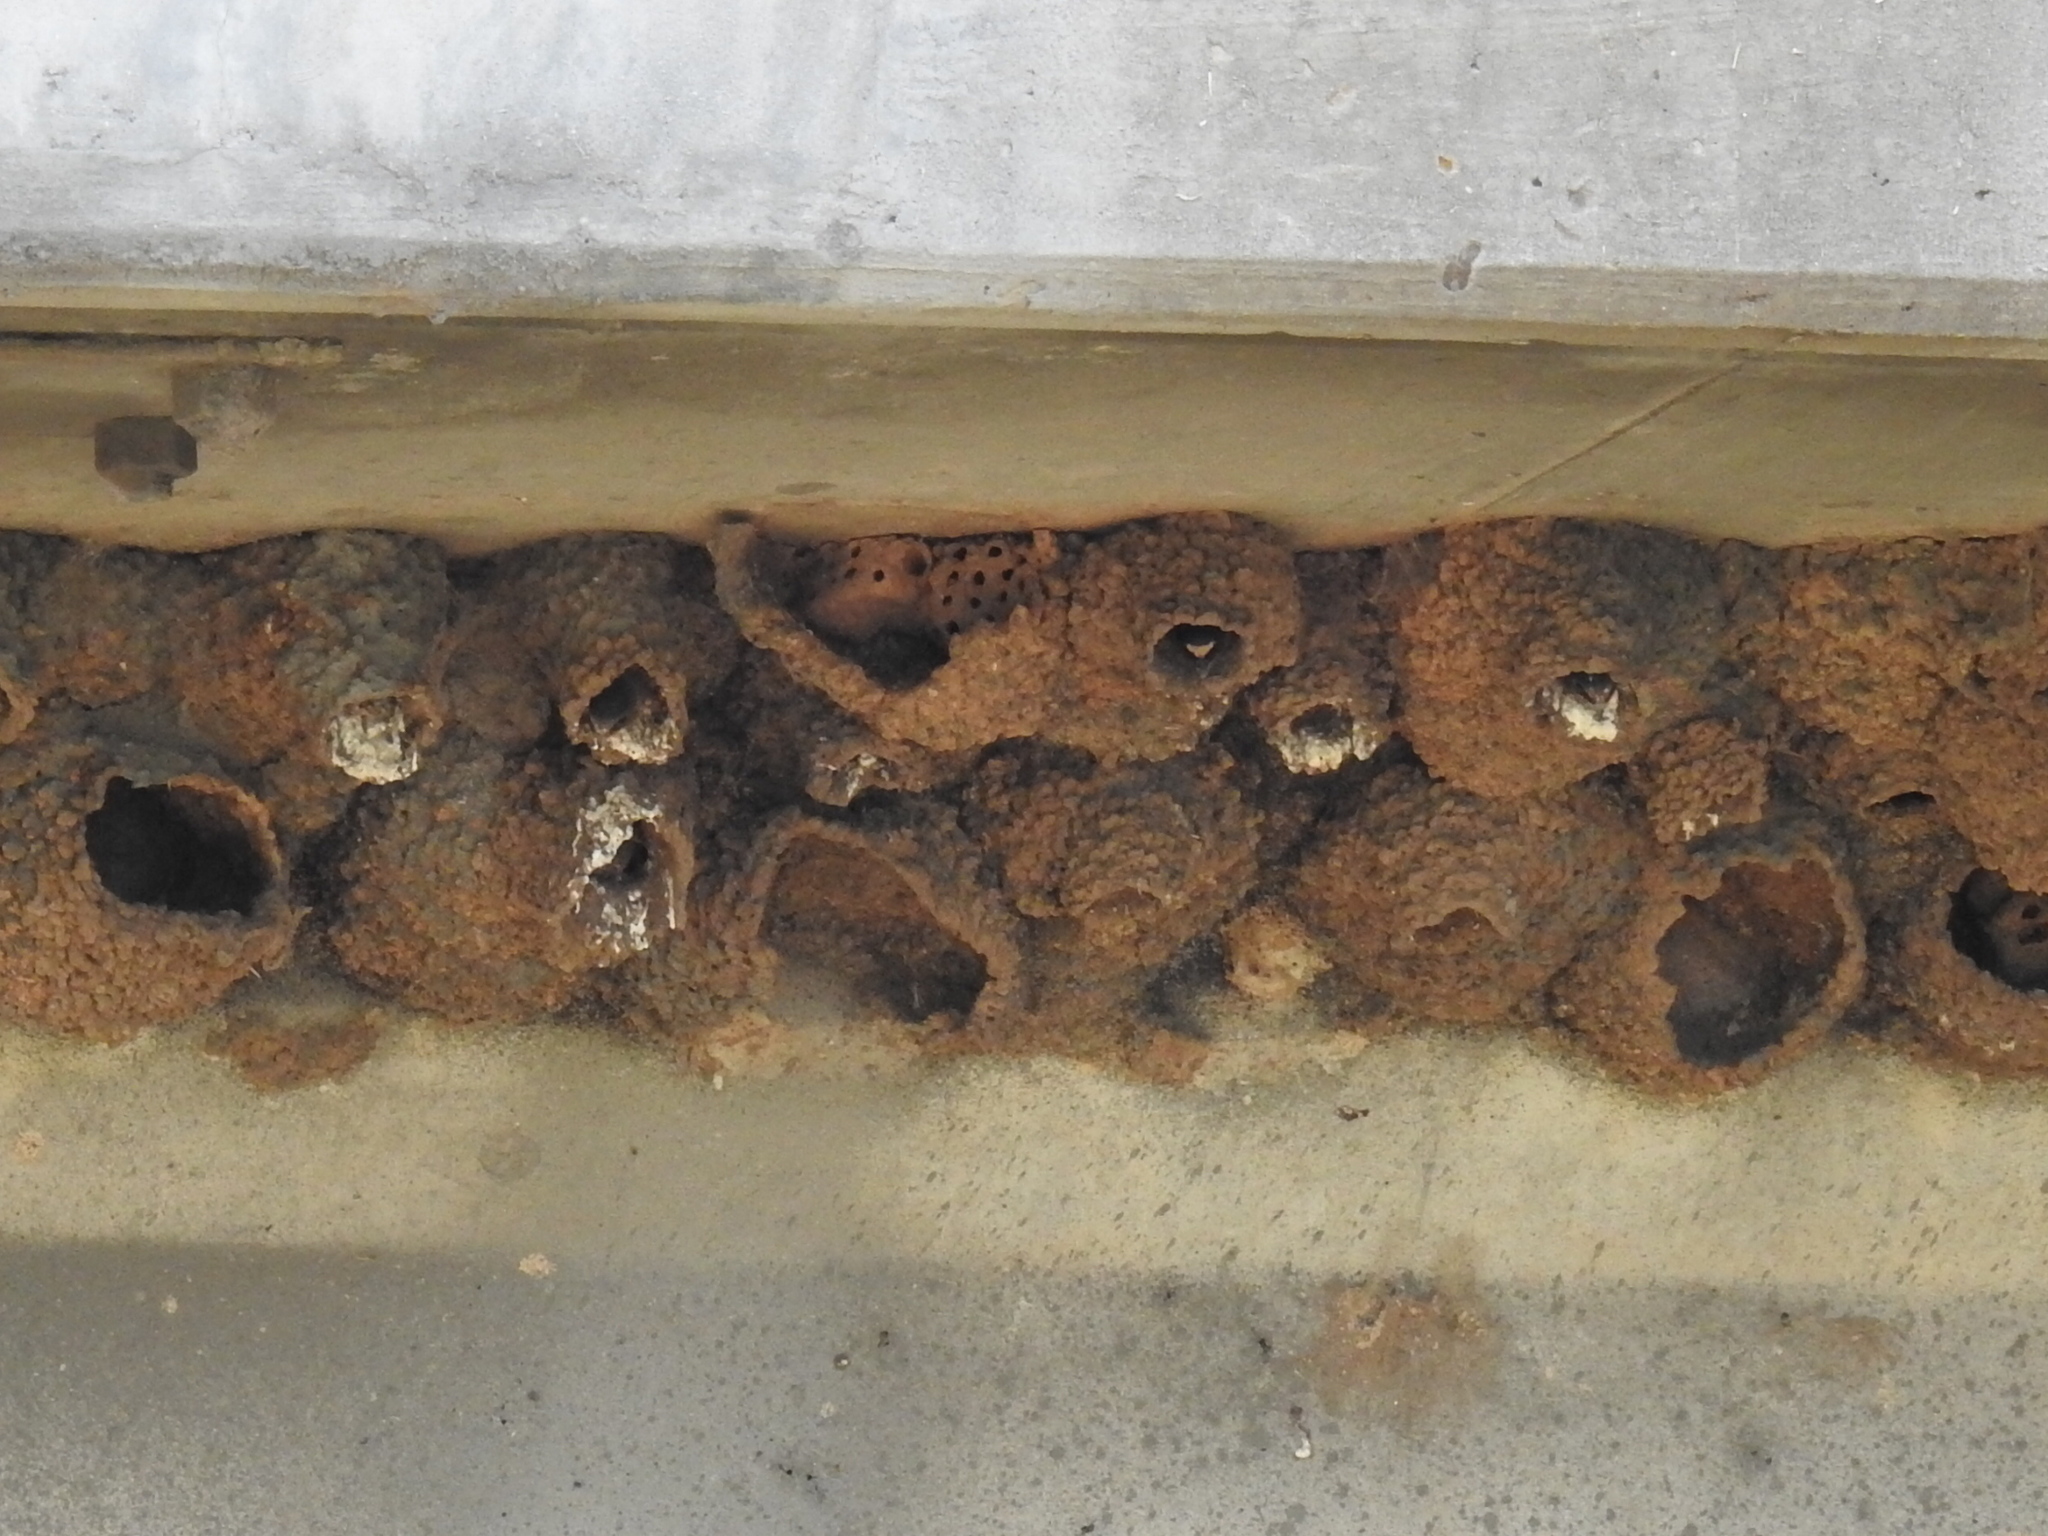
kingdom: Animalia
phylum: Chordata
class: Aves
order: Passeriformes
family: Hirundinidae
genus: Petrochelidon
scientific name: Petrochelidon pyrrhonota
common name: American cliff swallow
